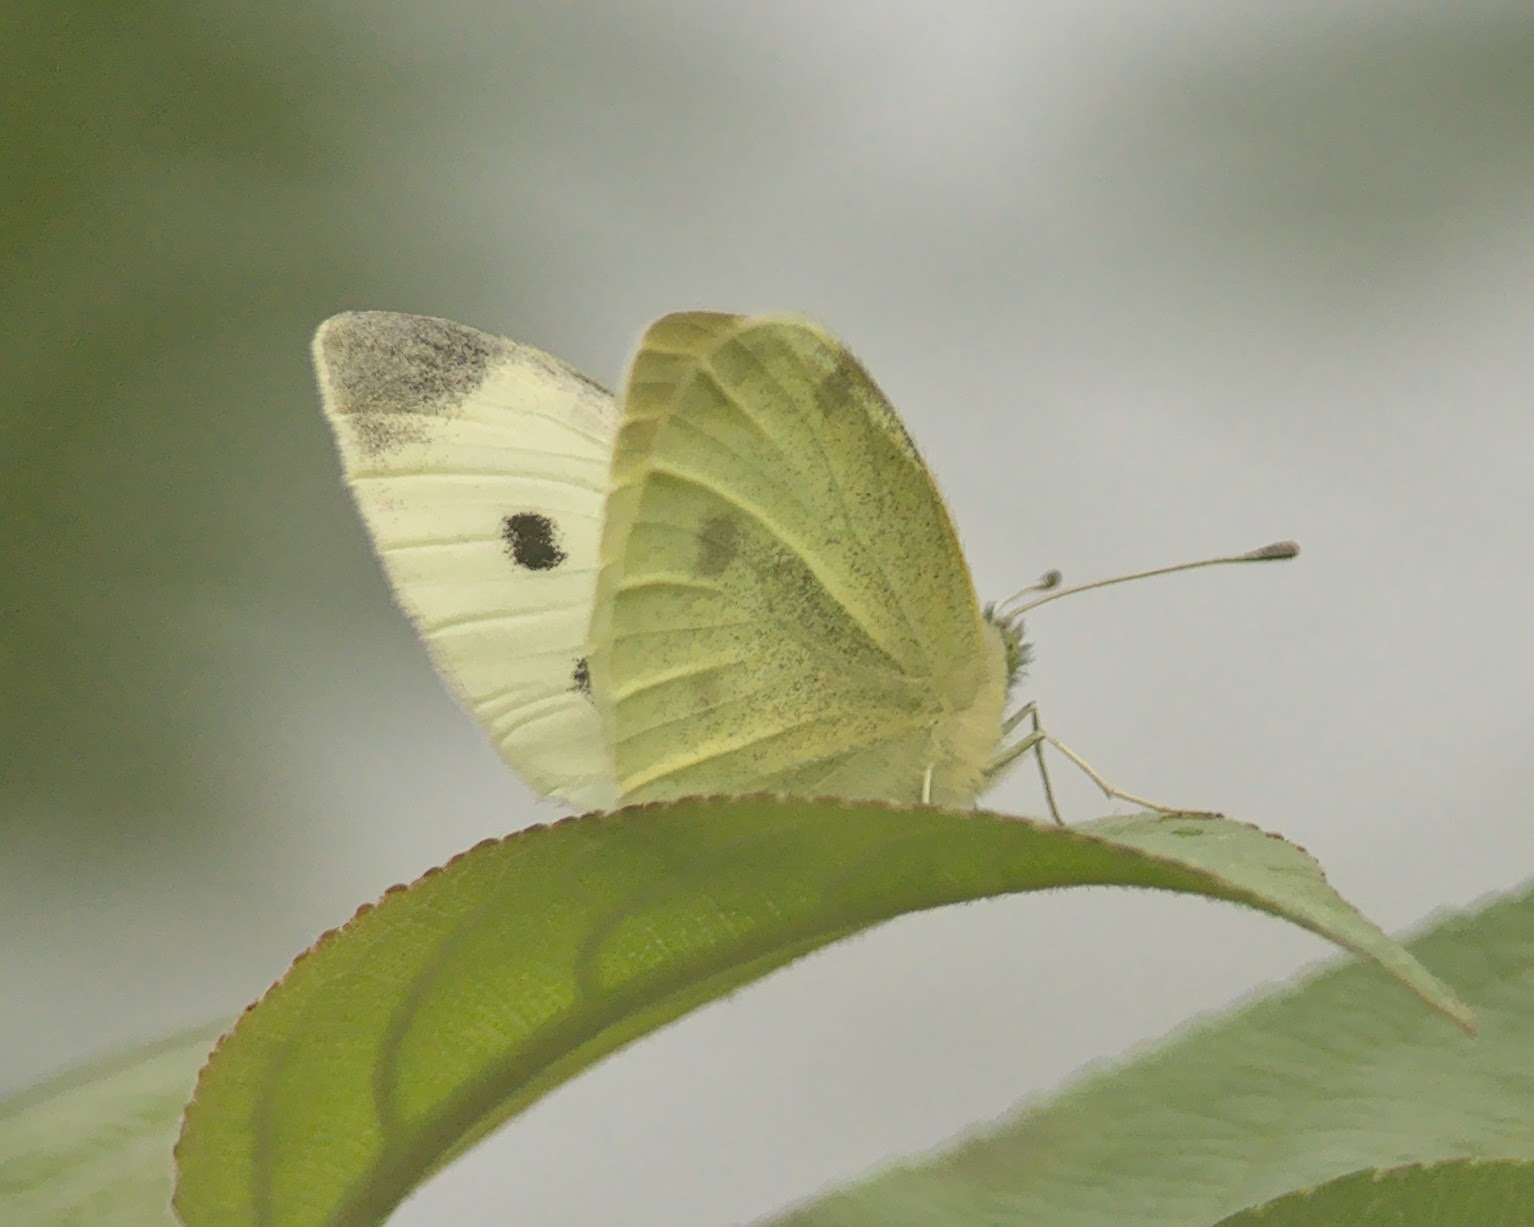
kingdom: Animalia
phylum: Arthropoda
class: Insecta
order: Lepidoptera
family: Pieridae
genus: Pieris
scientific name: Pieris rapae
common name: Small white
